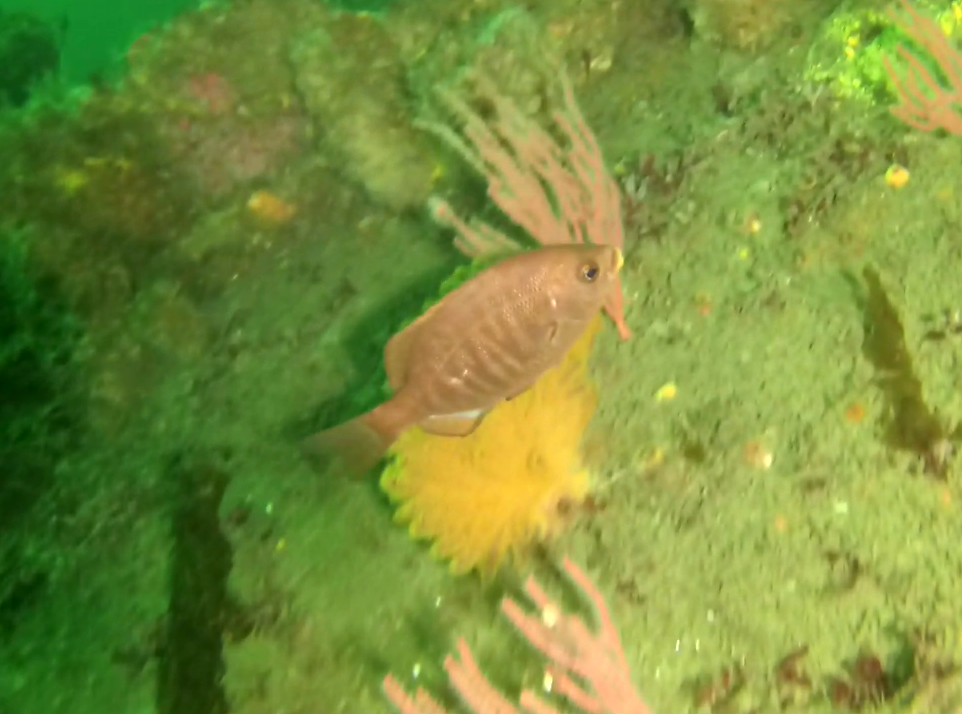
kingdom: Animalia
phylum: Chordata
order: Perciformes
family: Embiotocidae
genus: Embiotoca
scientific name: Embiotoca jacksoni
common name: Black perch
